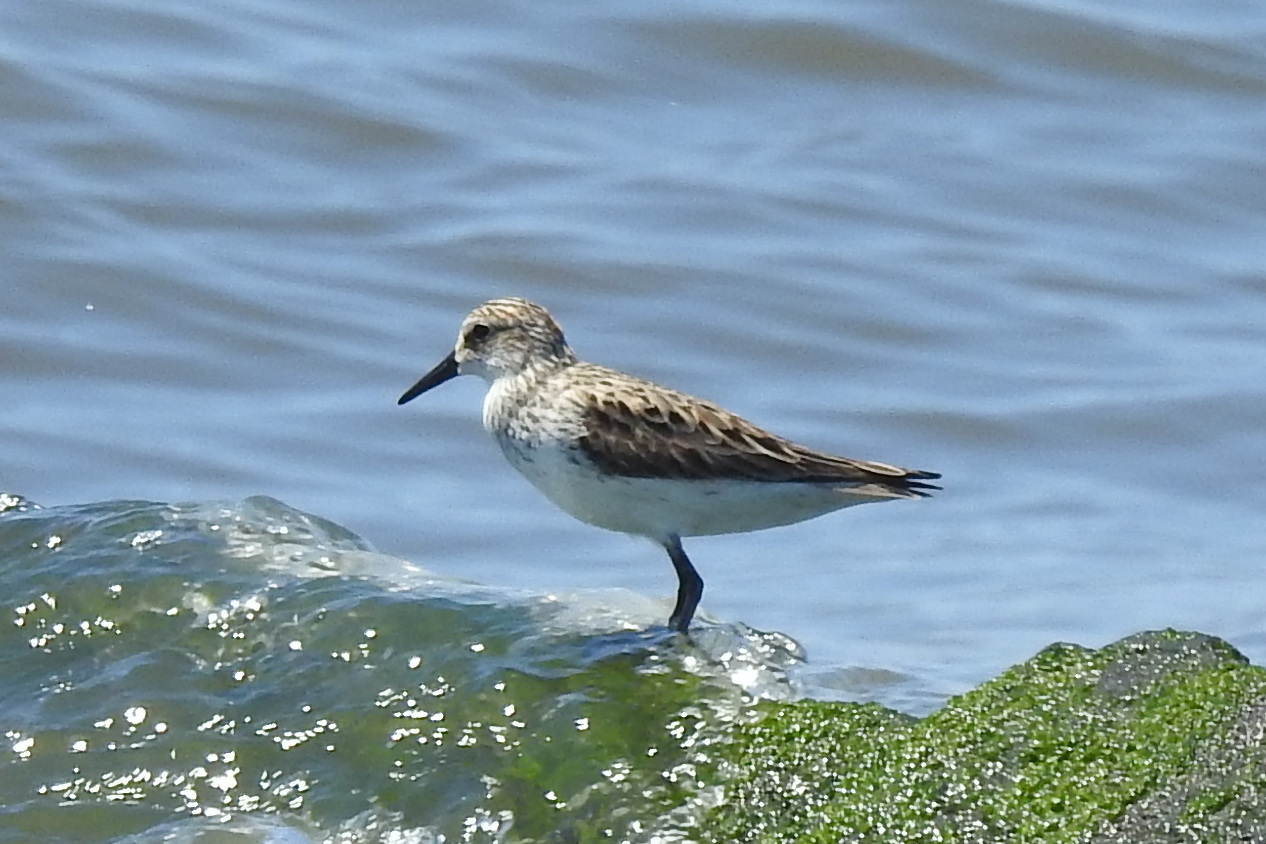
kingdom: Animalia
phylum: Chordata
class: Aves
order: Charadriiformes
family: Scolopacidae
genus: Calidris
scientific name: Calidris pusilla
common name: Semipalmated sandpiper
